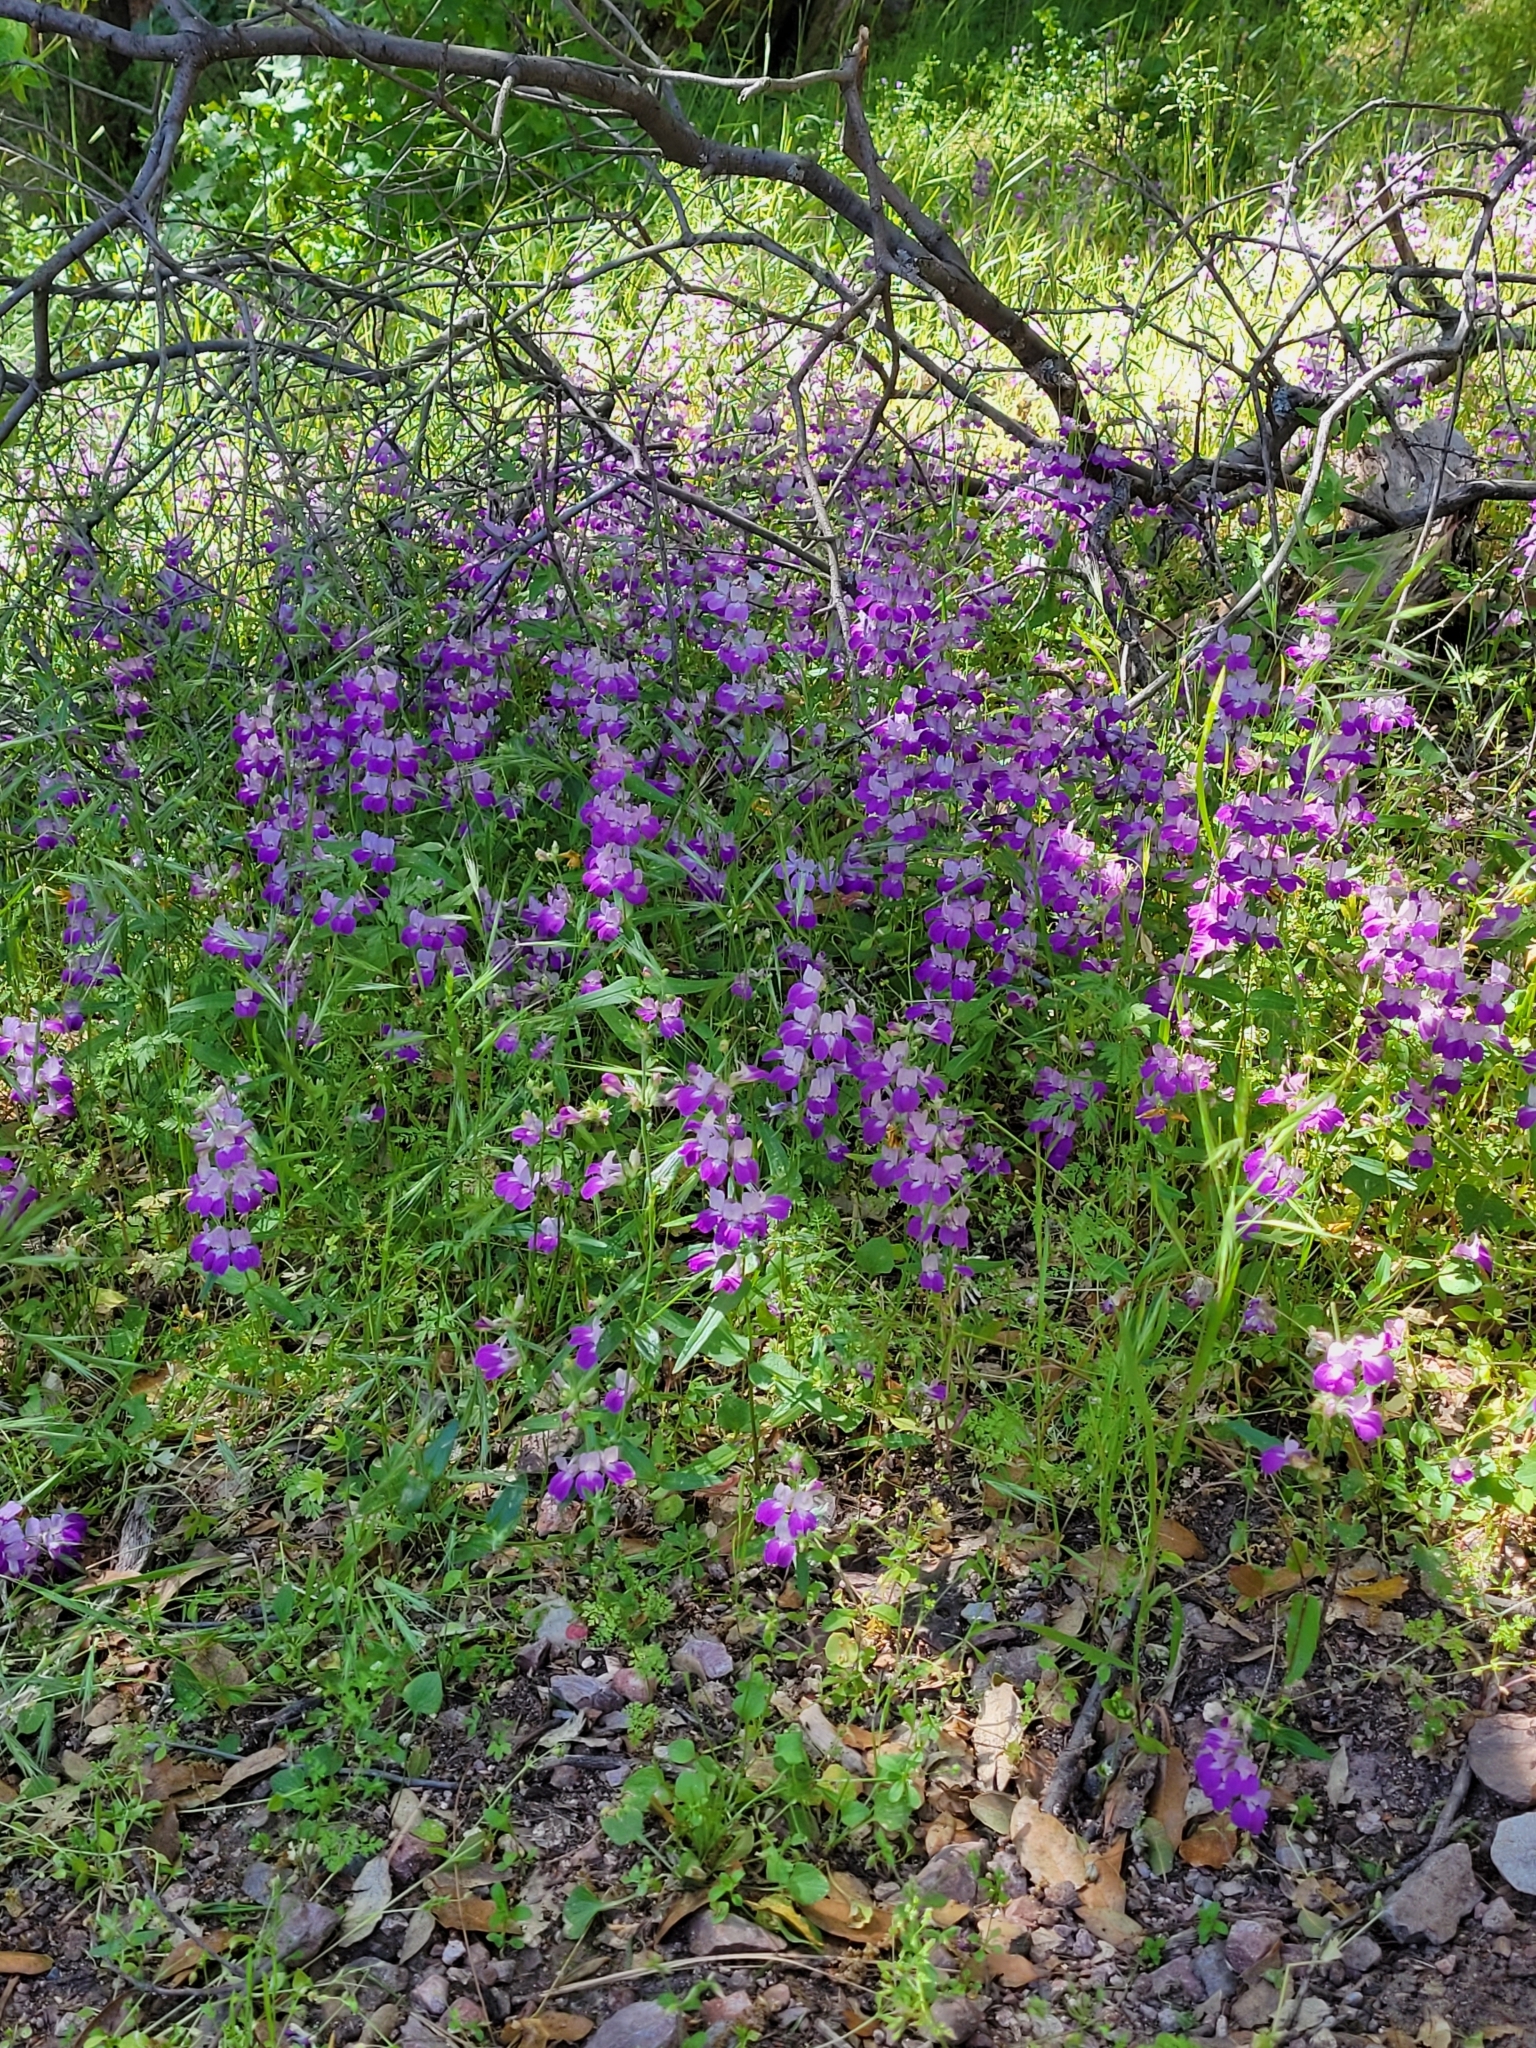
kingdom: Plantae
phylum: Tracheophyta
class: Magnoliopsida
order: Lamiales
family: Plantaginaceae
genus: Collinsia
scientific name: Collinsia heterophylla
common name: Chinese-houses
